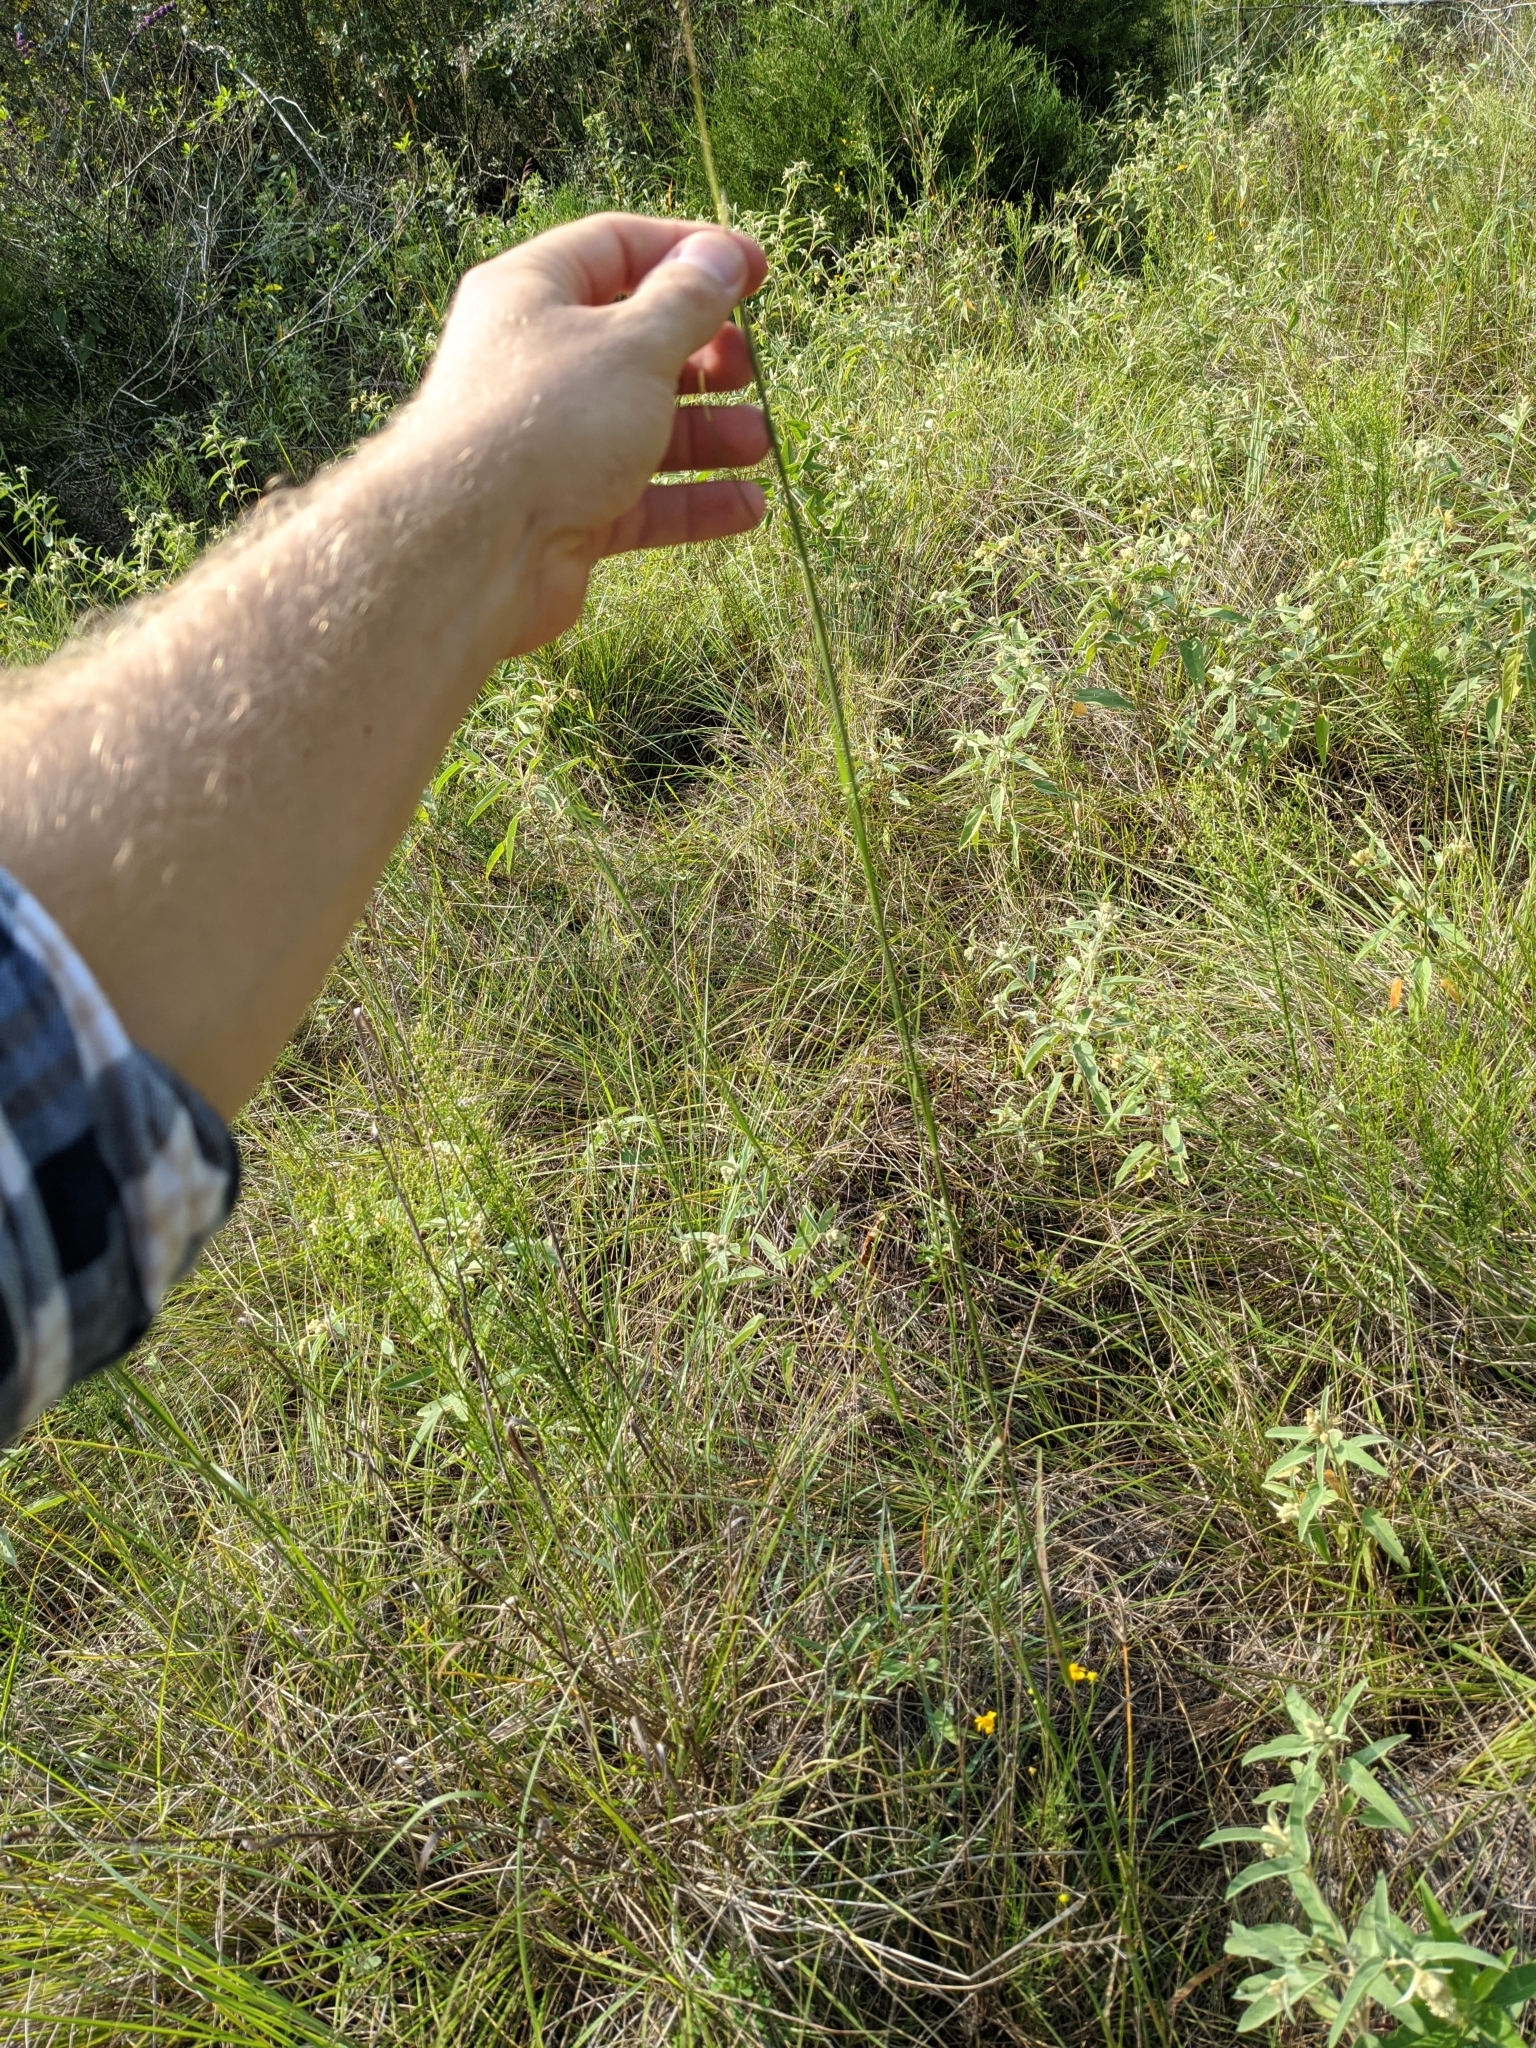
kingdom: Plantae
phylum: Tracheophyta
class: Liliopsida
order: Poales
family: Poaceae
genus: Sporobolus
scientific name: Sporobolus compositus
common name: Rough dropseed
